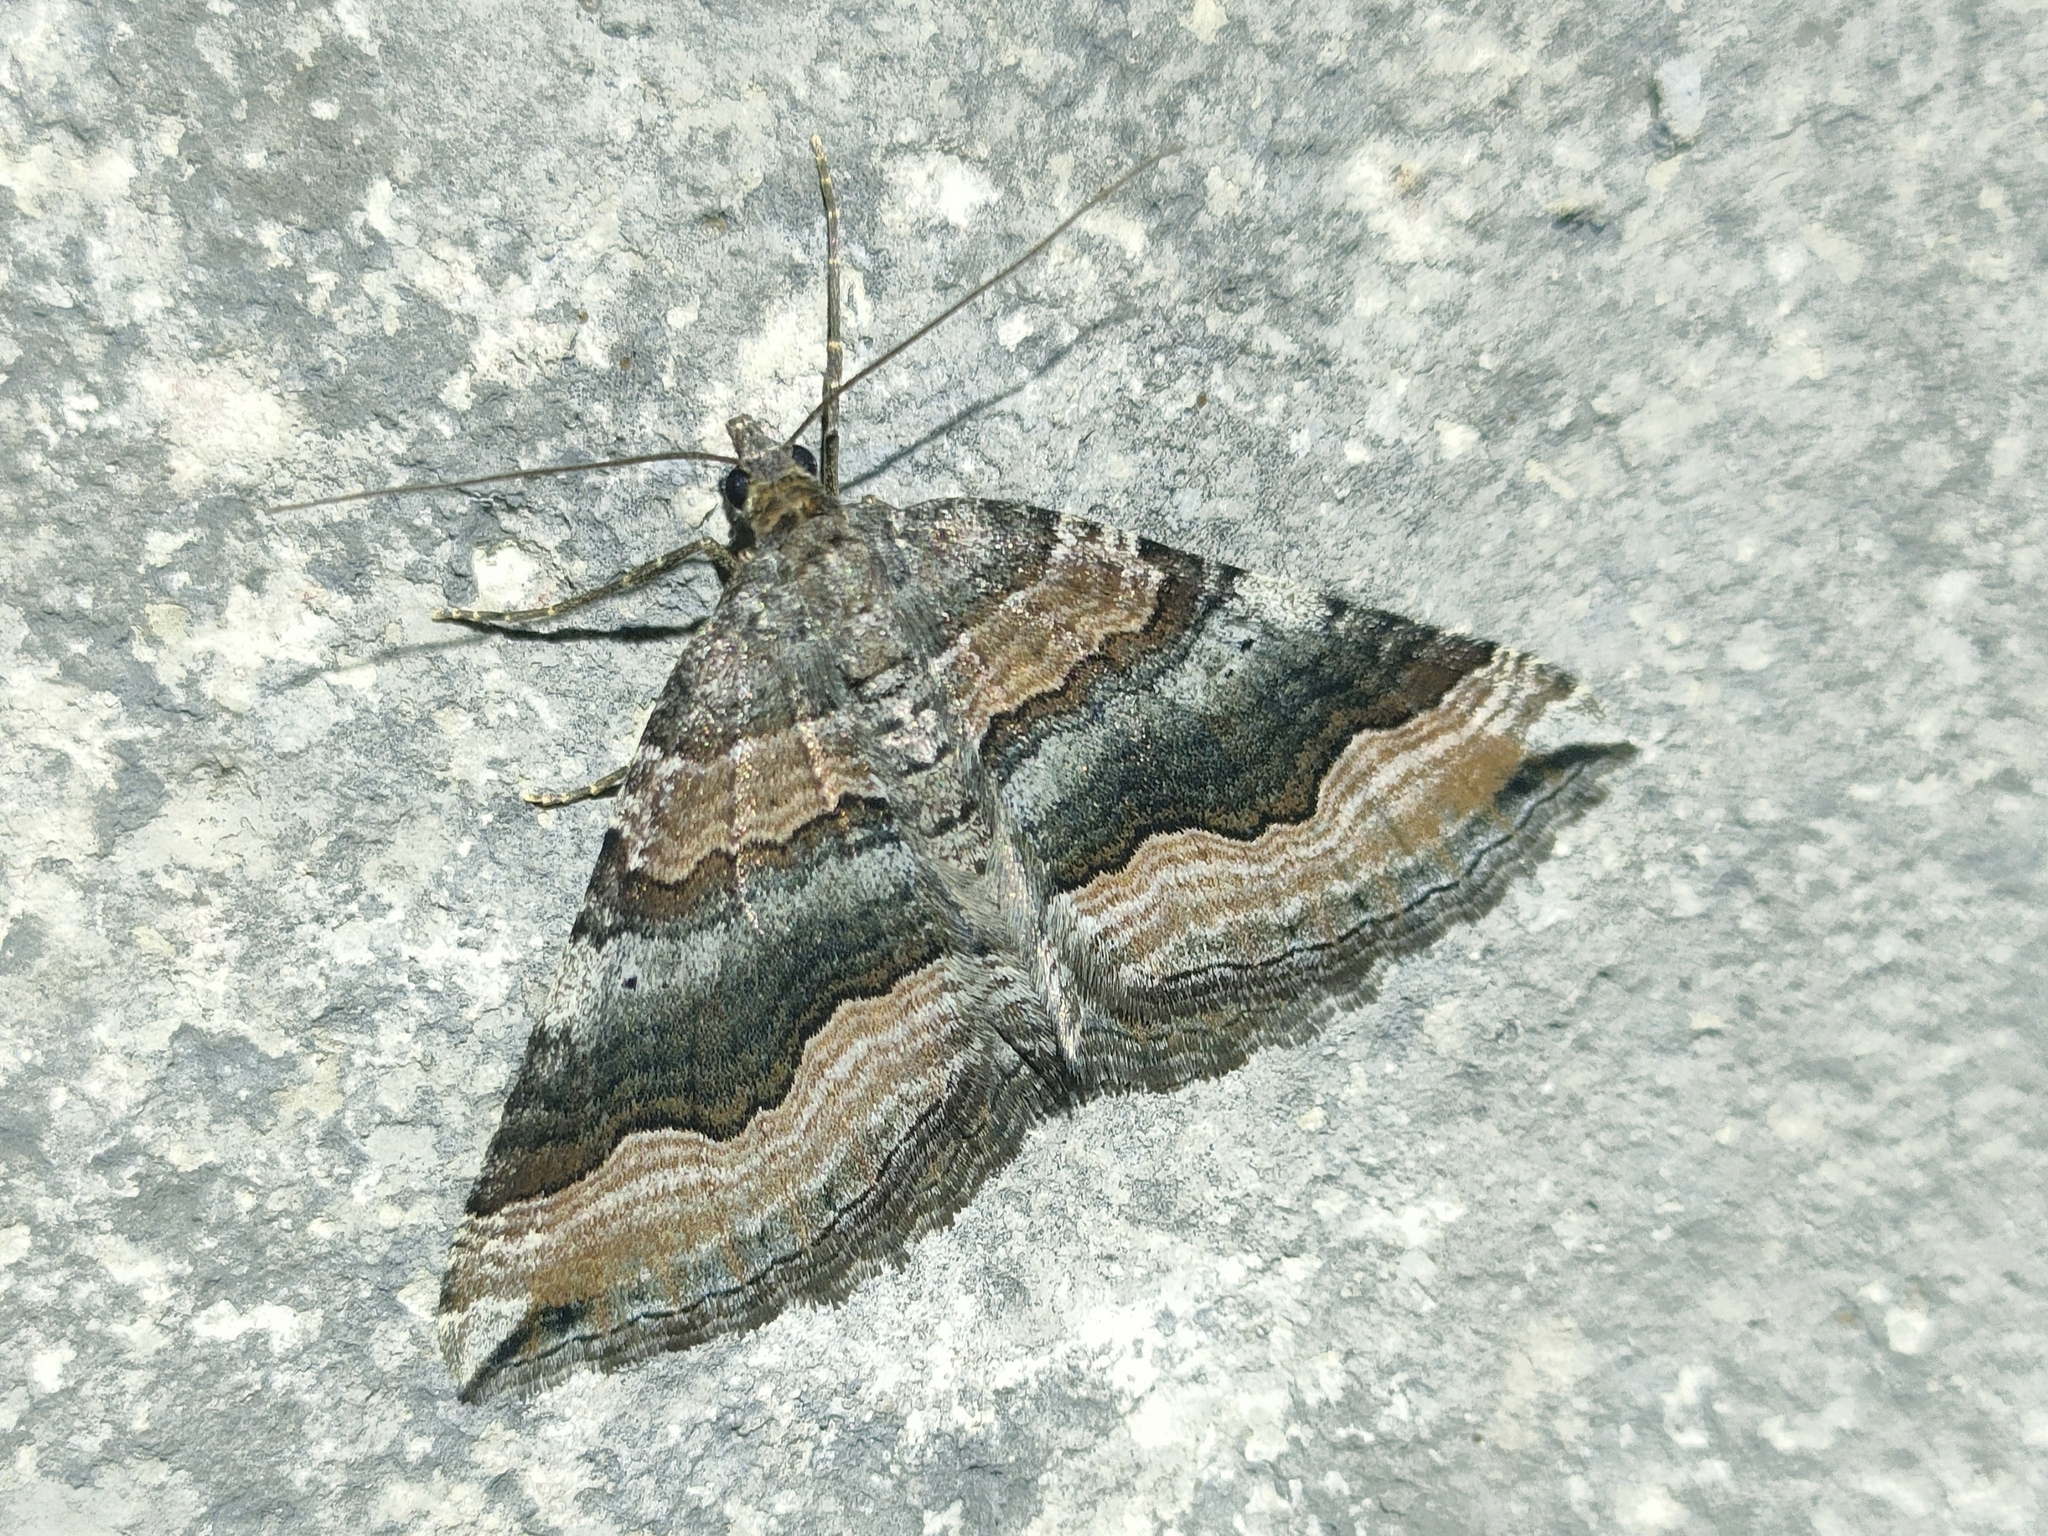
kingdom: Animalia
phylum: Arthropoda
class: Insecta
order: Lepidoptera
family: Geometridae
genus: Scotopteryx
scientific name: Scotopteryx coelinaria
